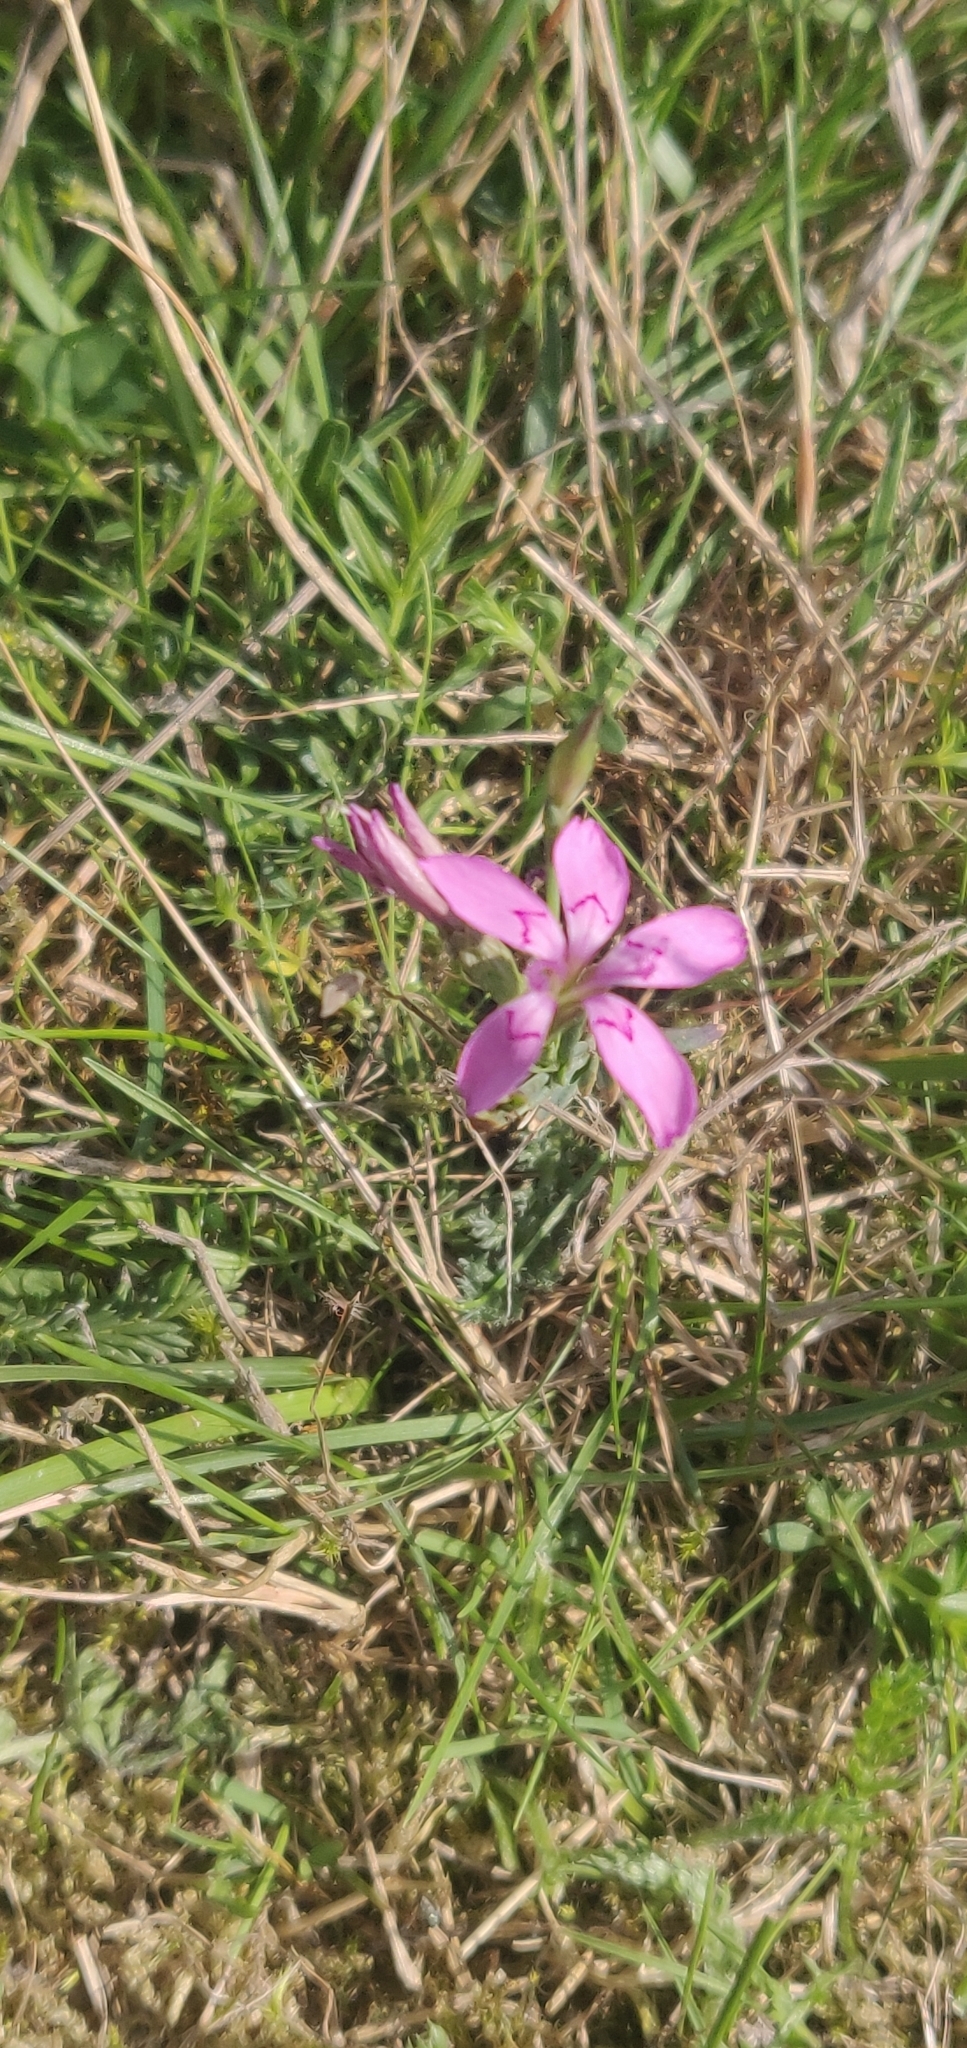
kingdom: Plantae
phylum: Tracheophyta
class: Magnoliopsida
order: Caryophyllales
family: Caryophyllaceae
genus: Dianthus
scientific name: Dianthus deltoides
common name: Maiden pink
